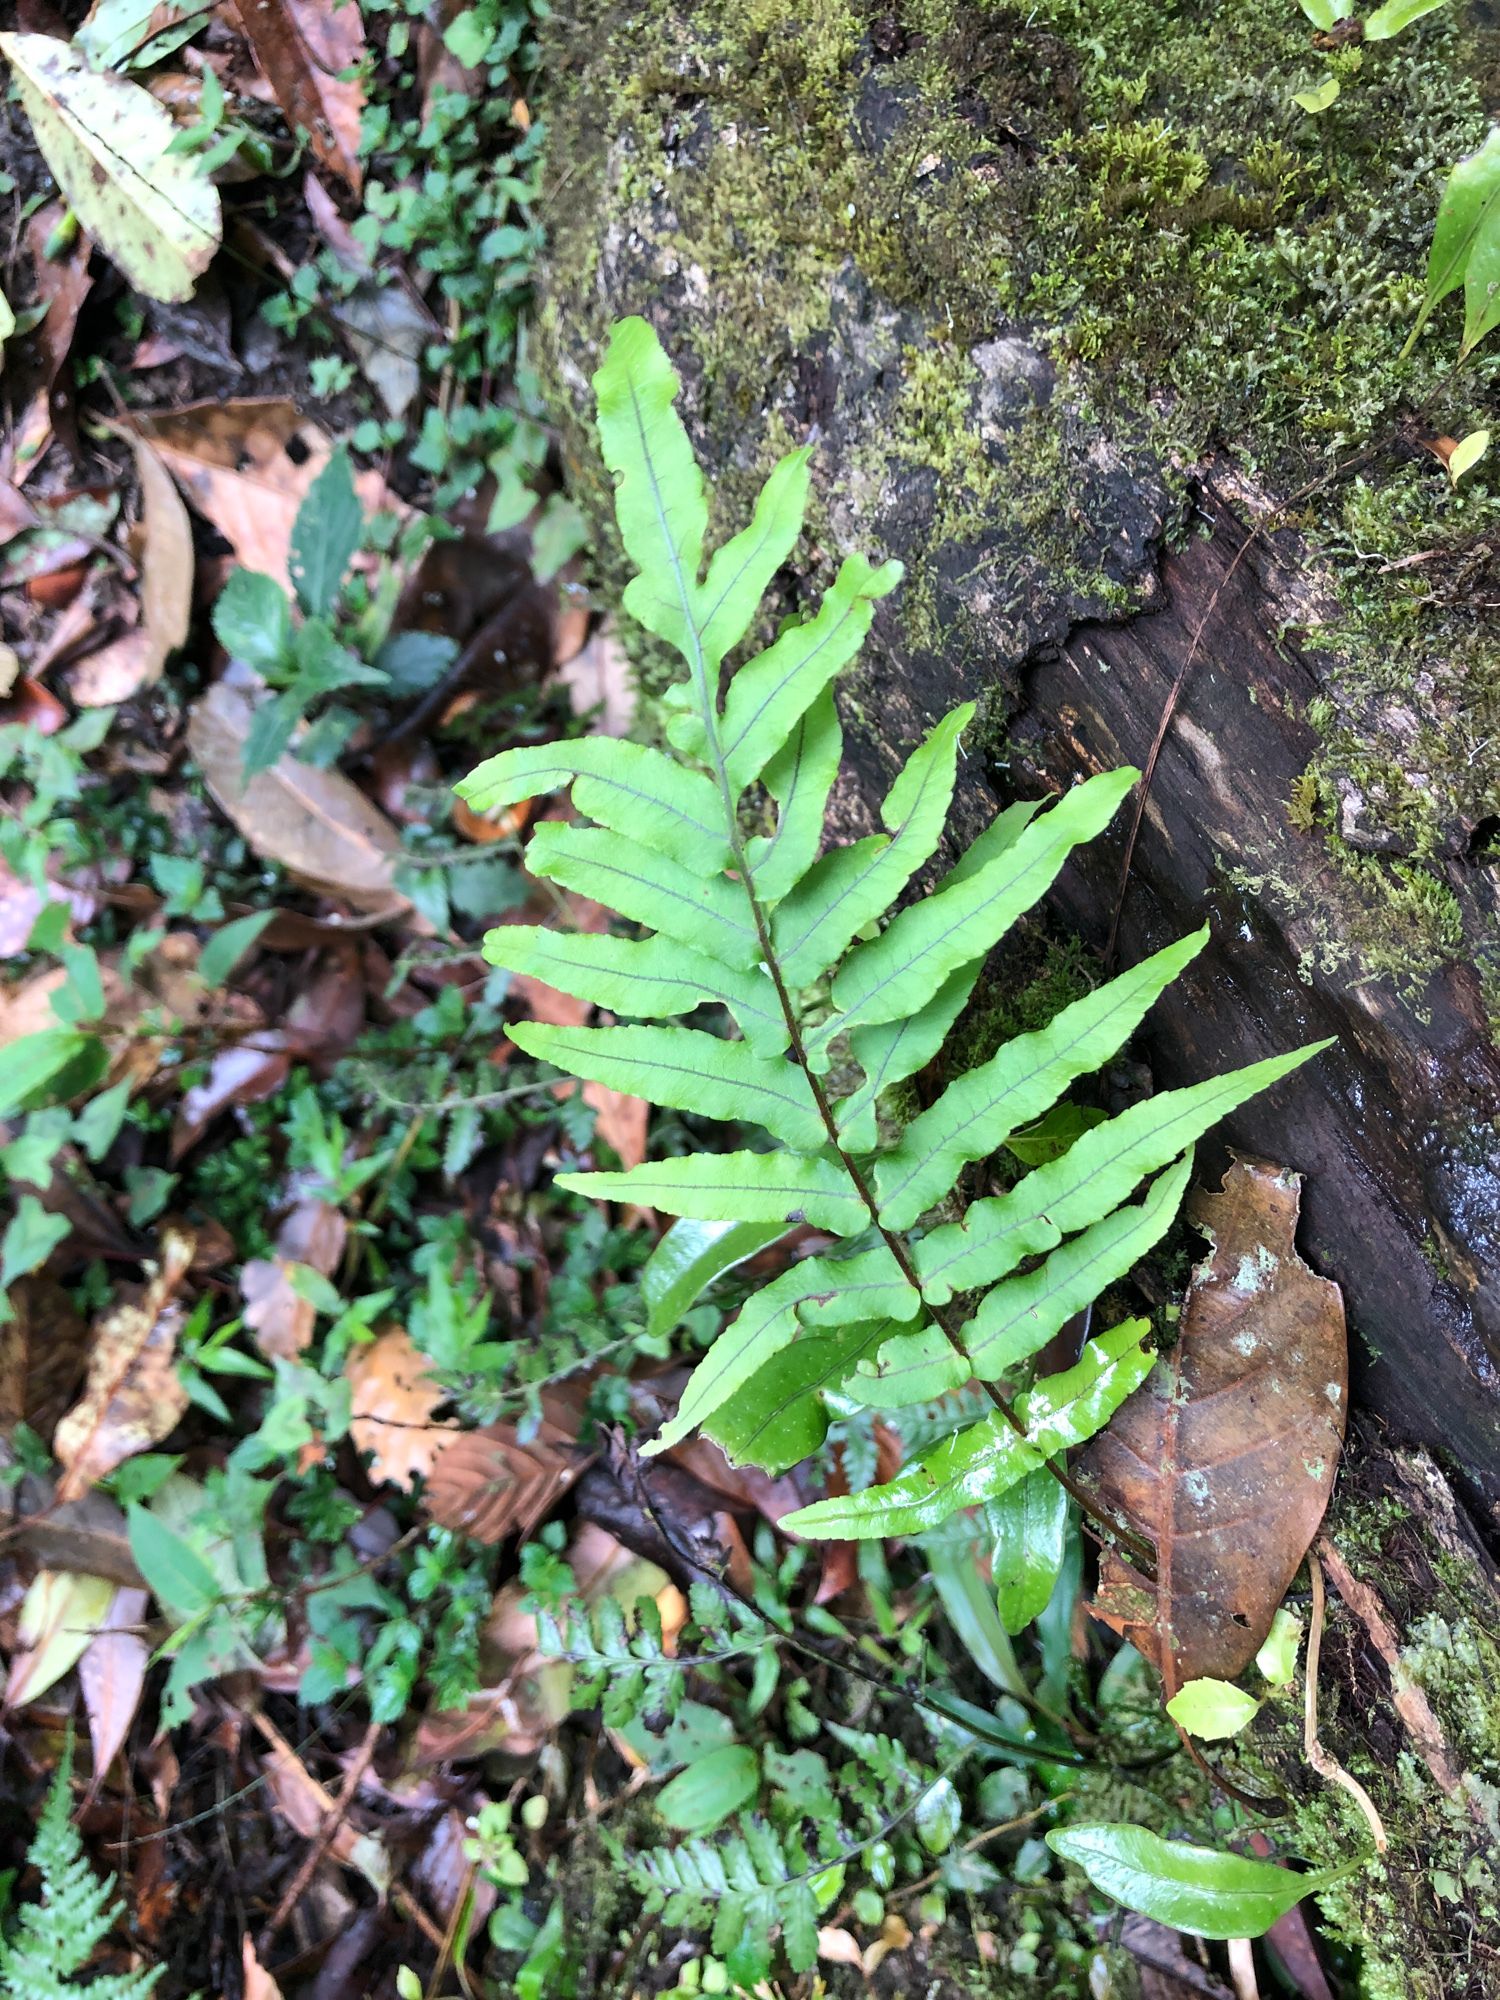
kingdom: Plantae
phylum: Tracheophyta
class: Polypodiopsida
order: Polypodiales
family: Polypodiaceae
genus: Goniophlebium
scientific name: Goniophlebium mengtzeense
